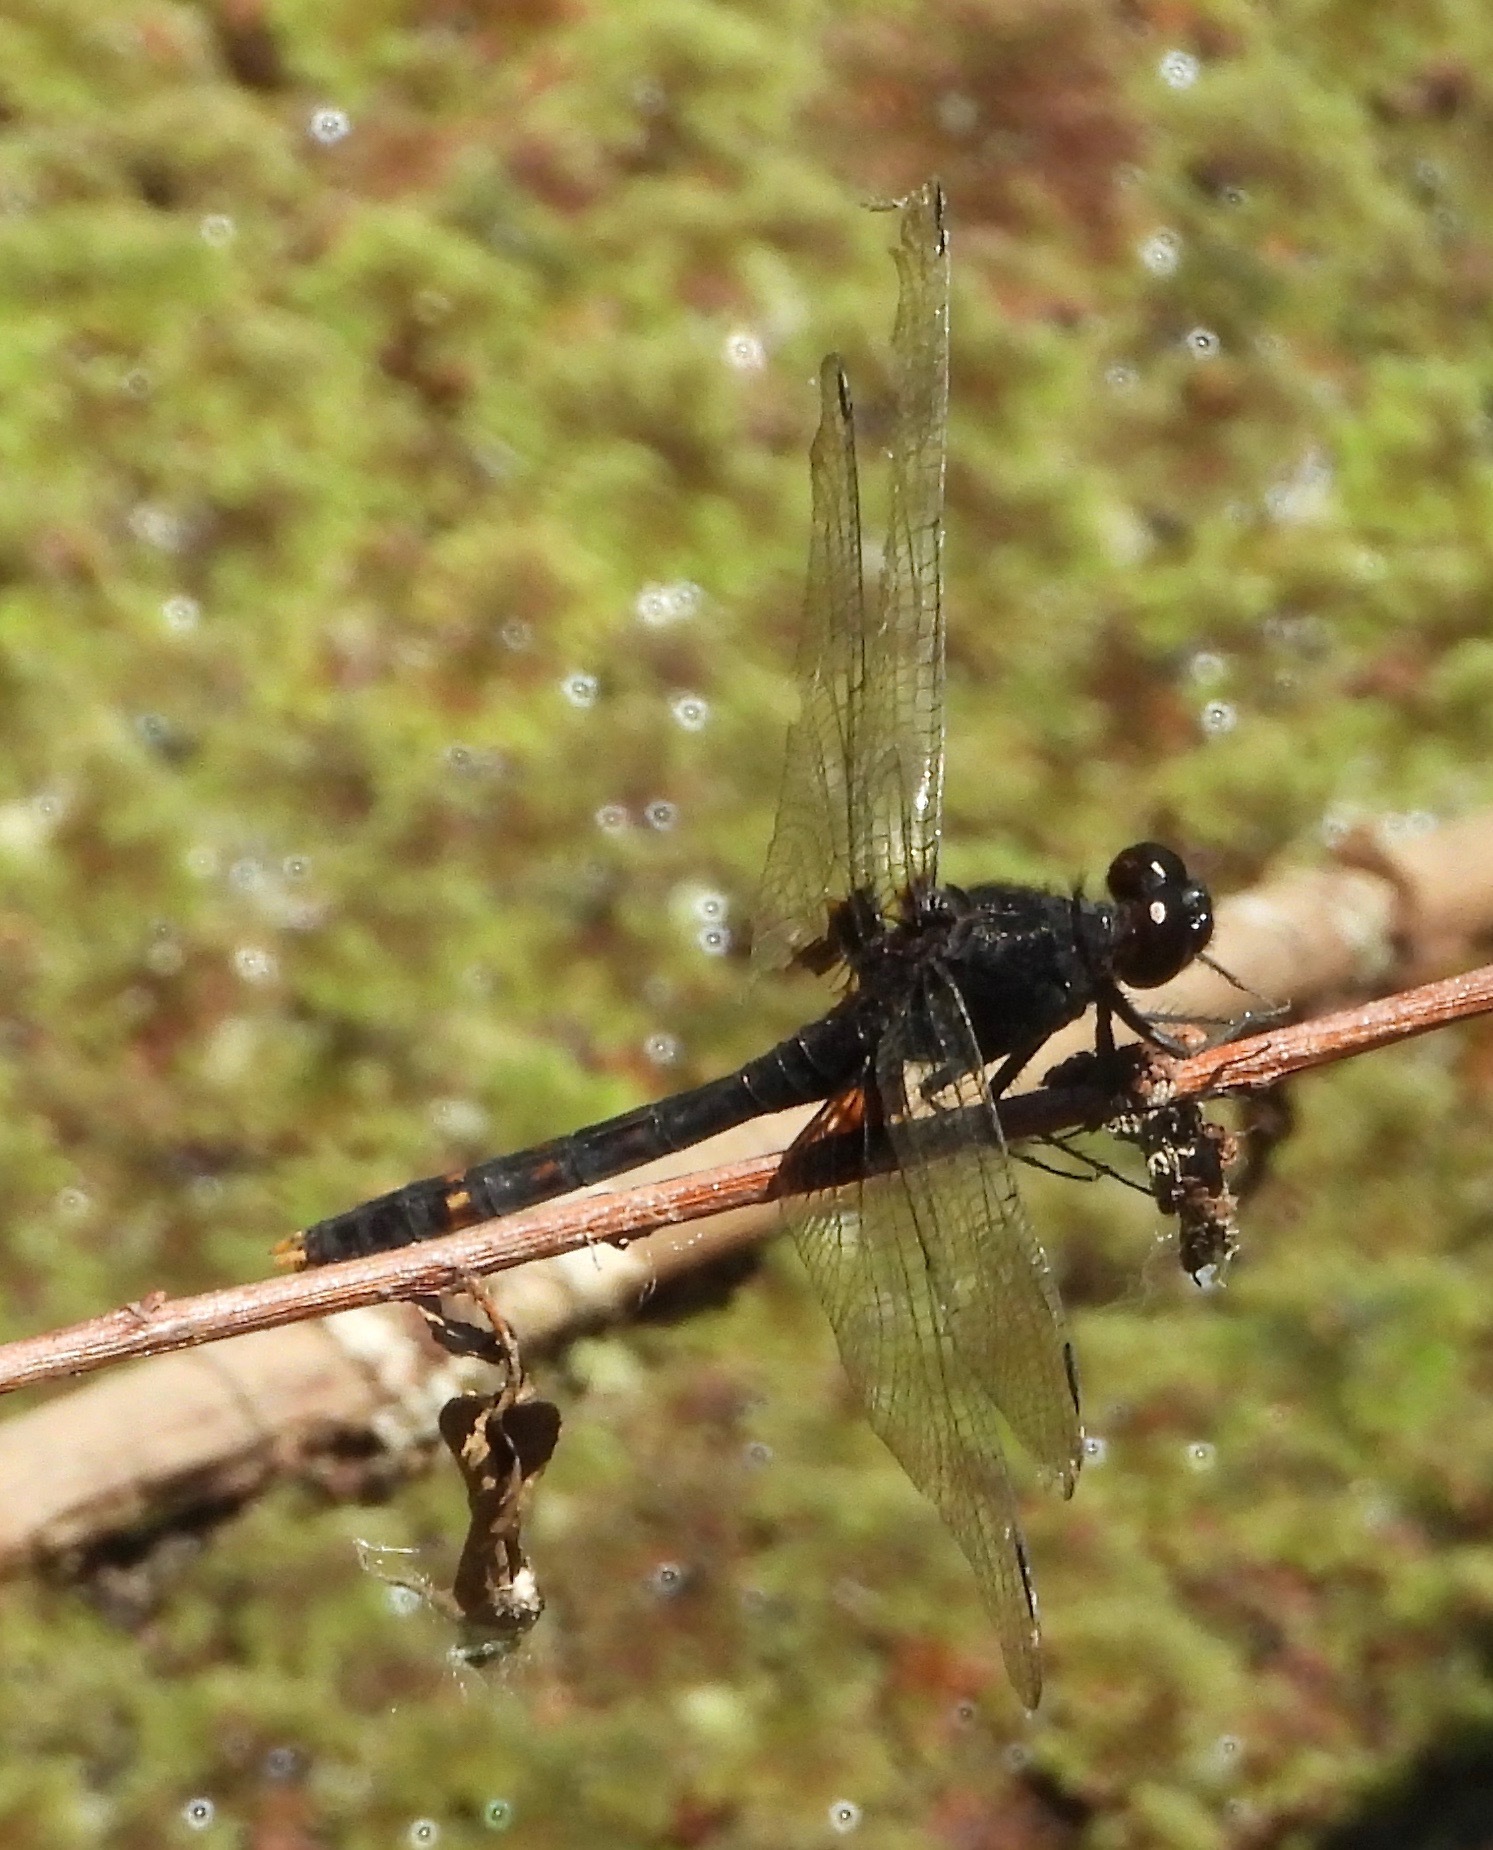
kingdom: Animalia
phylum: Arthropoda
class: Insecta
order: Odonata
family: Libellulidae
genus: Erythemis
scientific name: Erythemis attala
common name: Black pondhawk
